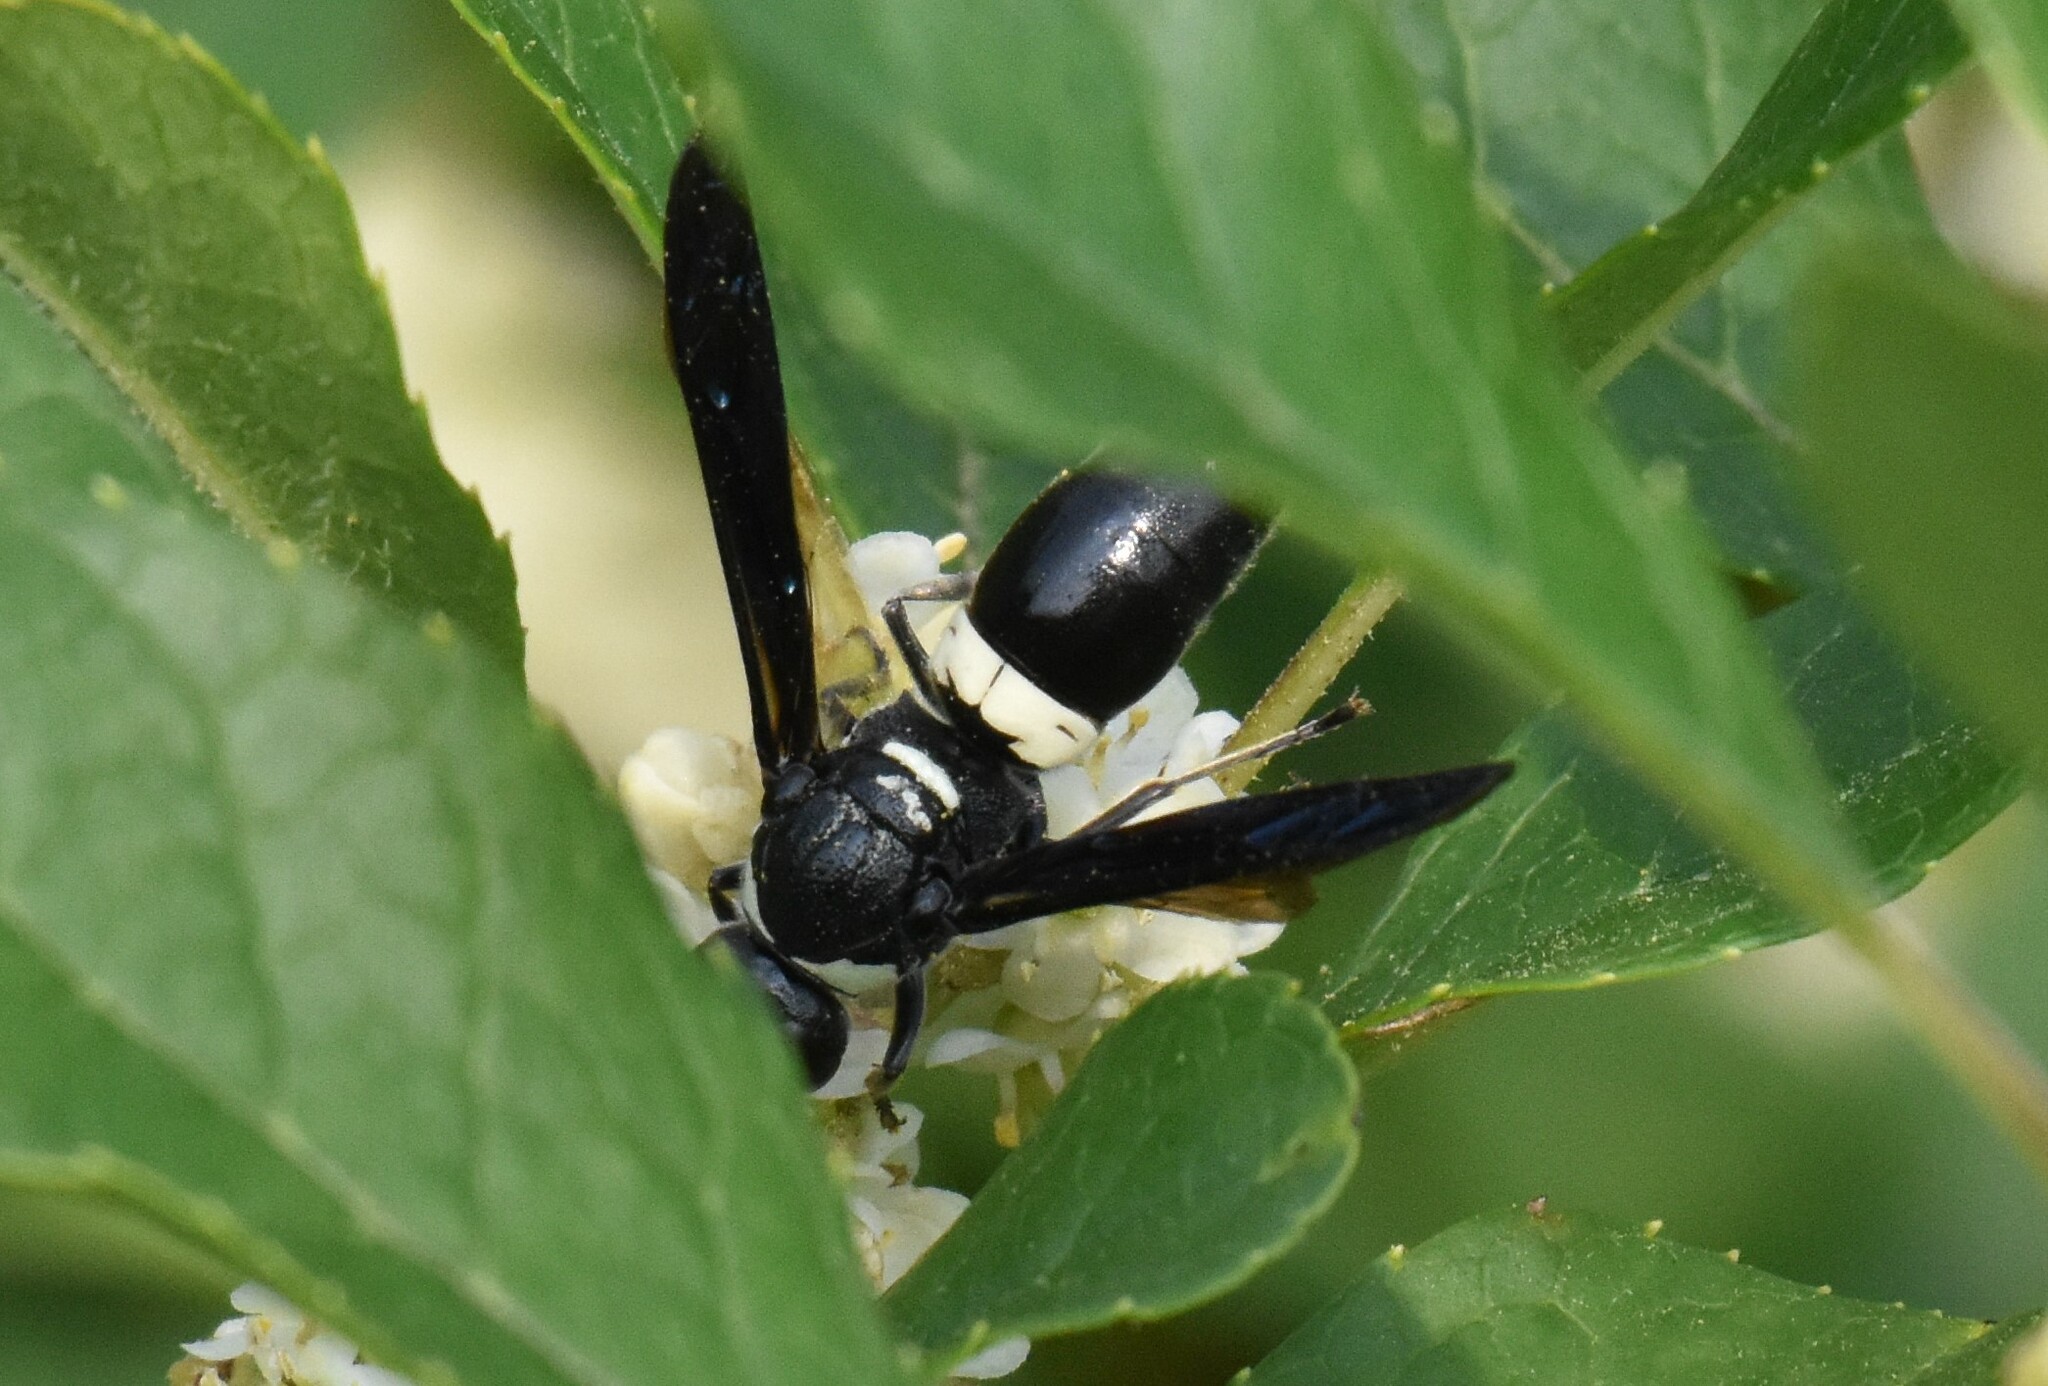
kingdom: Animalia
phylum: Arthropoda
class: Insecta
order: Hymenoptera
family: Eumenidae
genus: Monobia
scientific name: Monobia quadridens
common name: Four-toothed mason wasp
